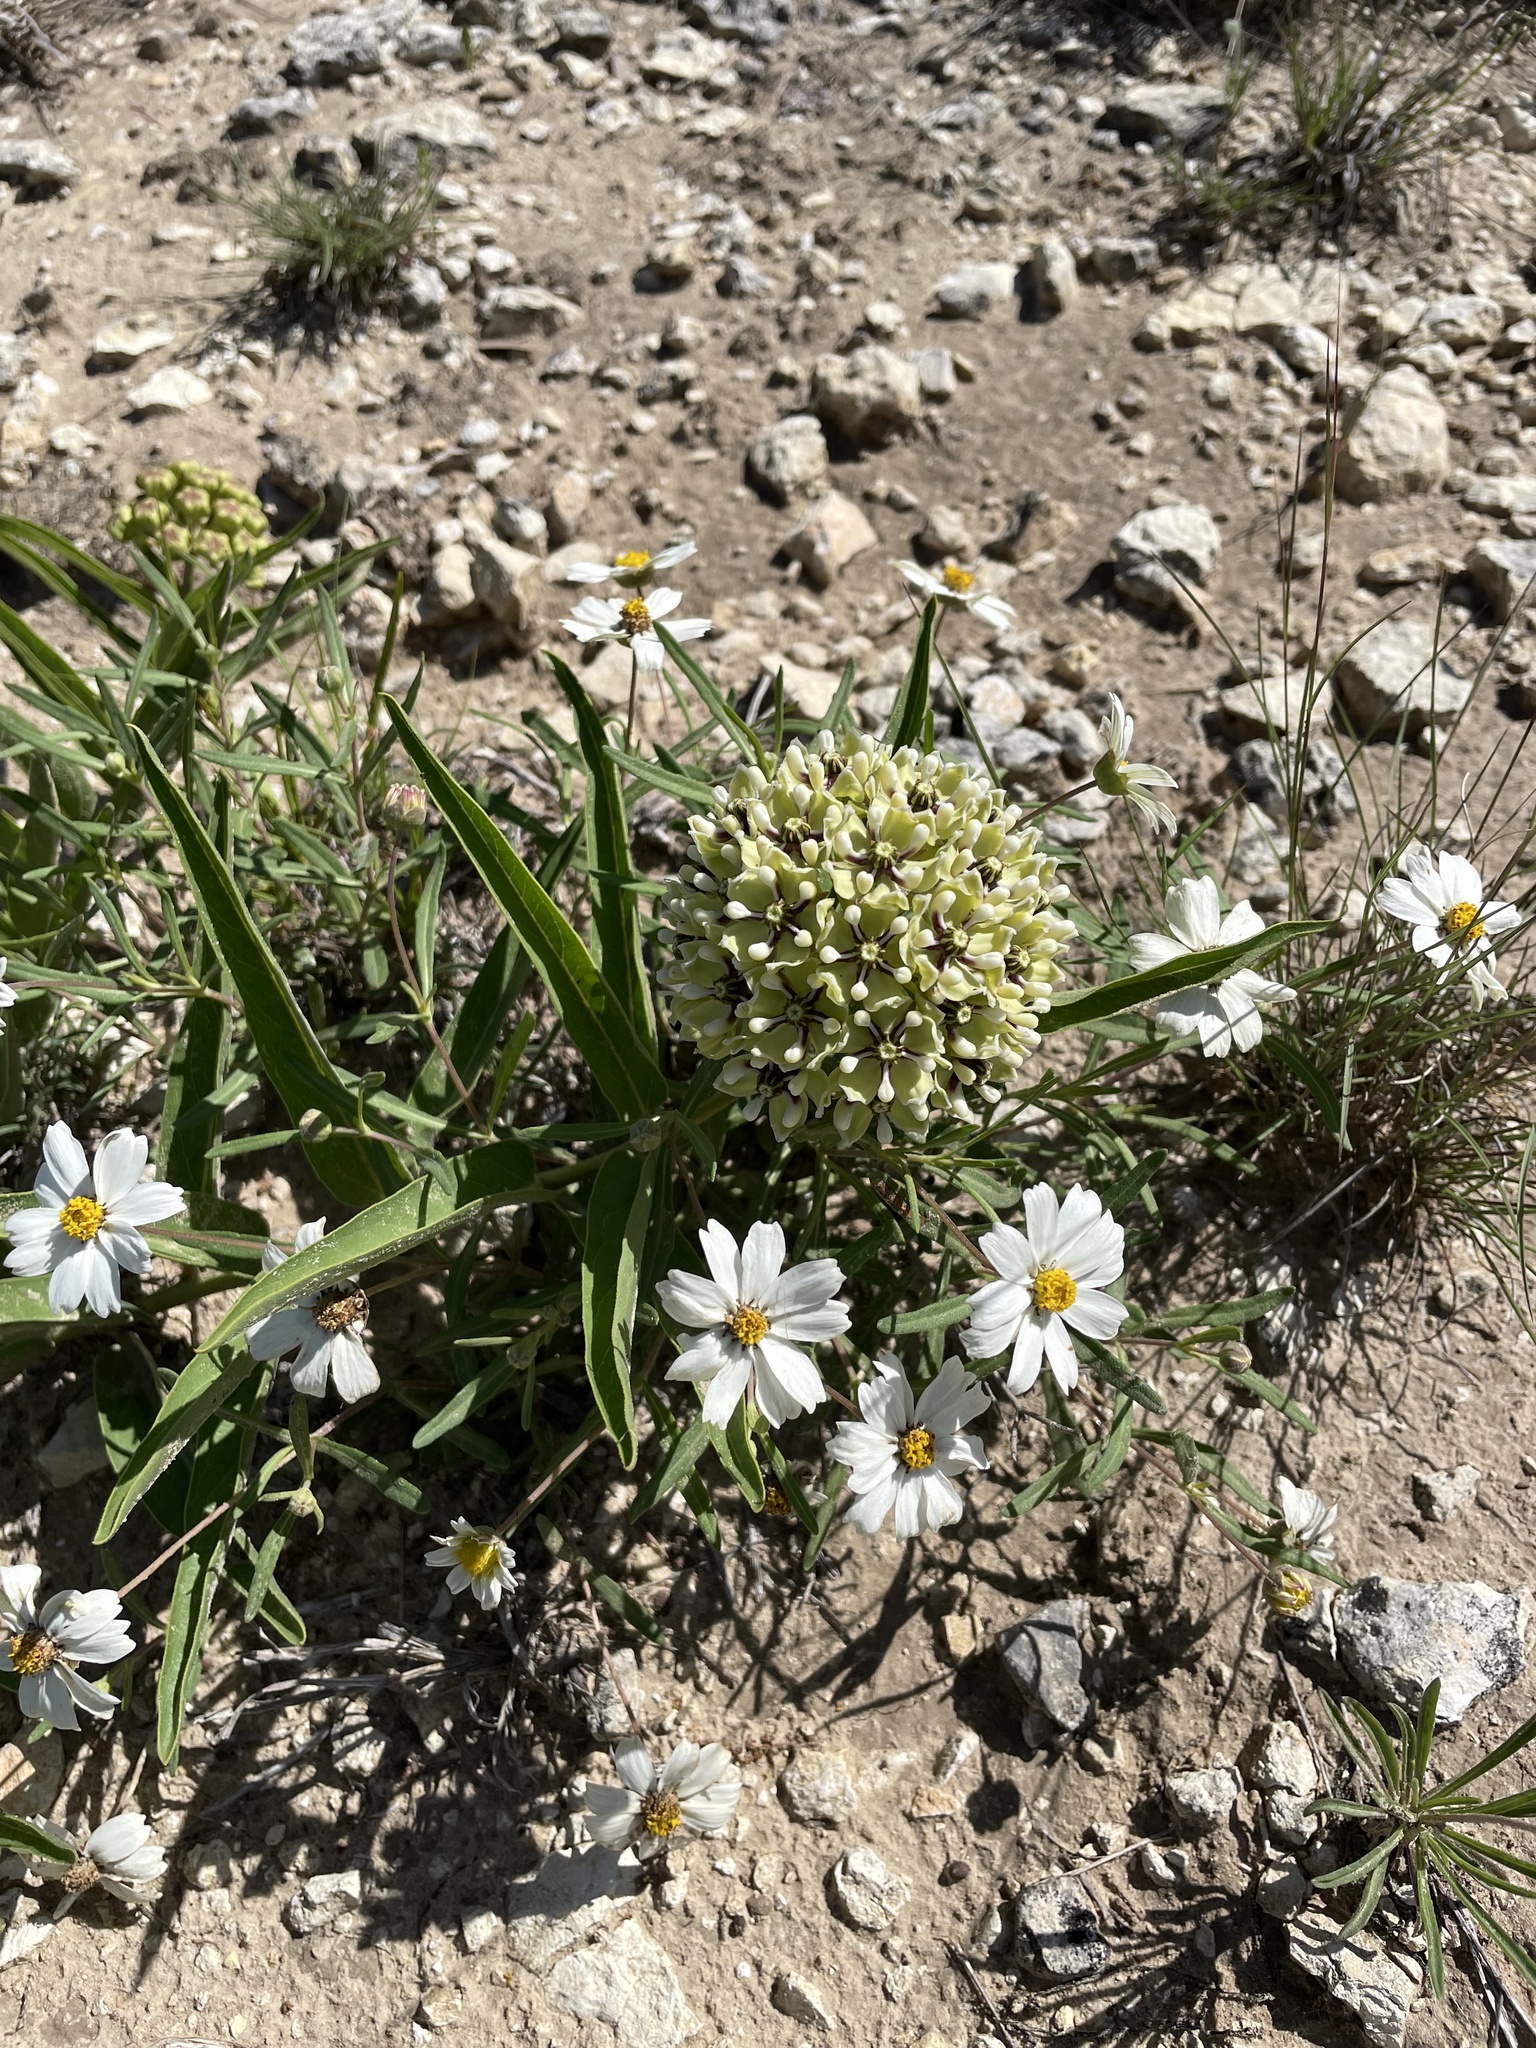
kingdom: Plantae
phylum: Tracheophyta
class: Magnoliopsida
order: Gentianales
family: Apocynaceae
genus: Asclepias
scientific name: Asclepias asperula
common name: Antelope horns
